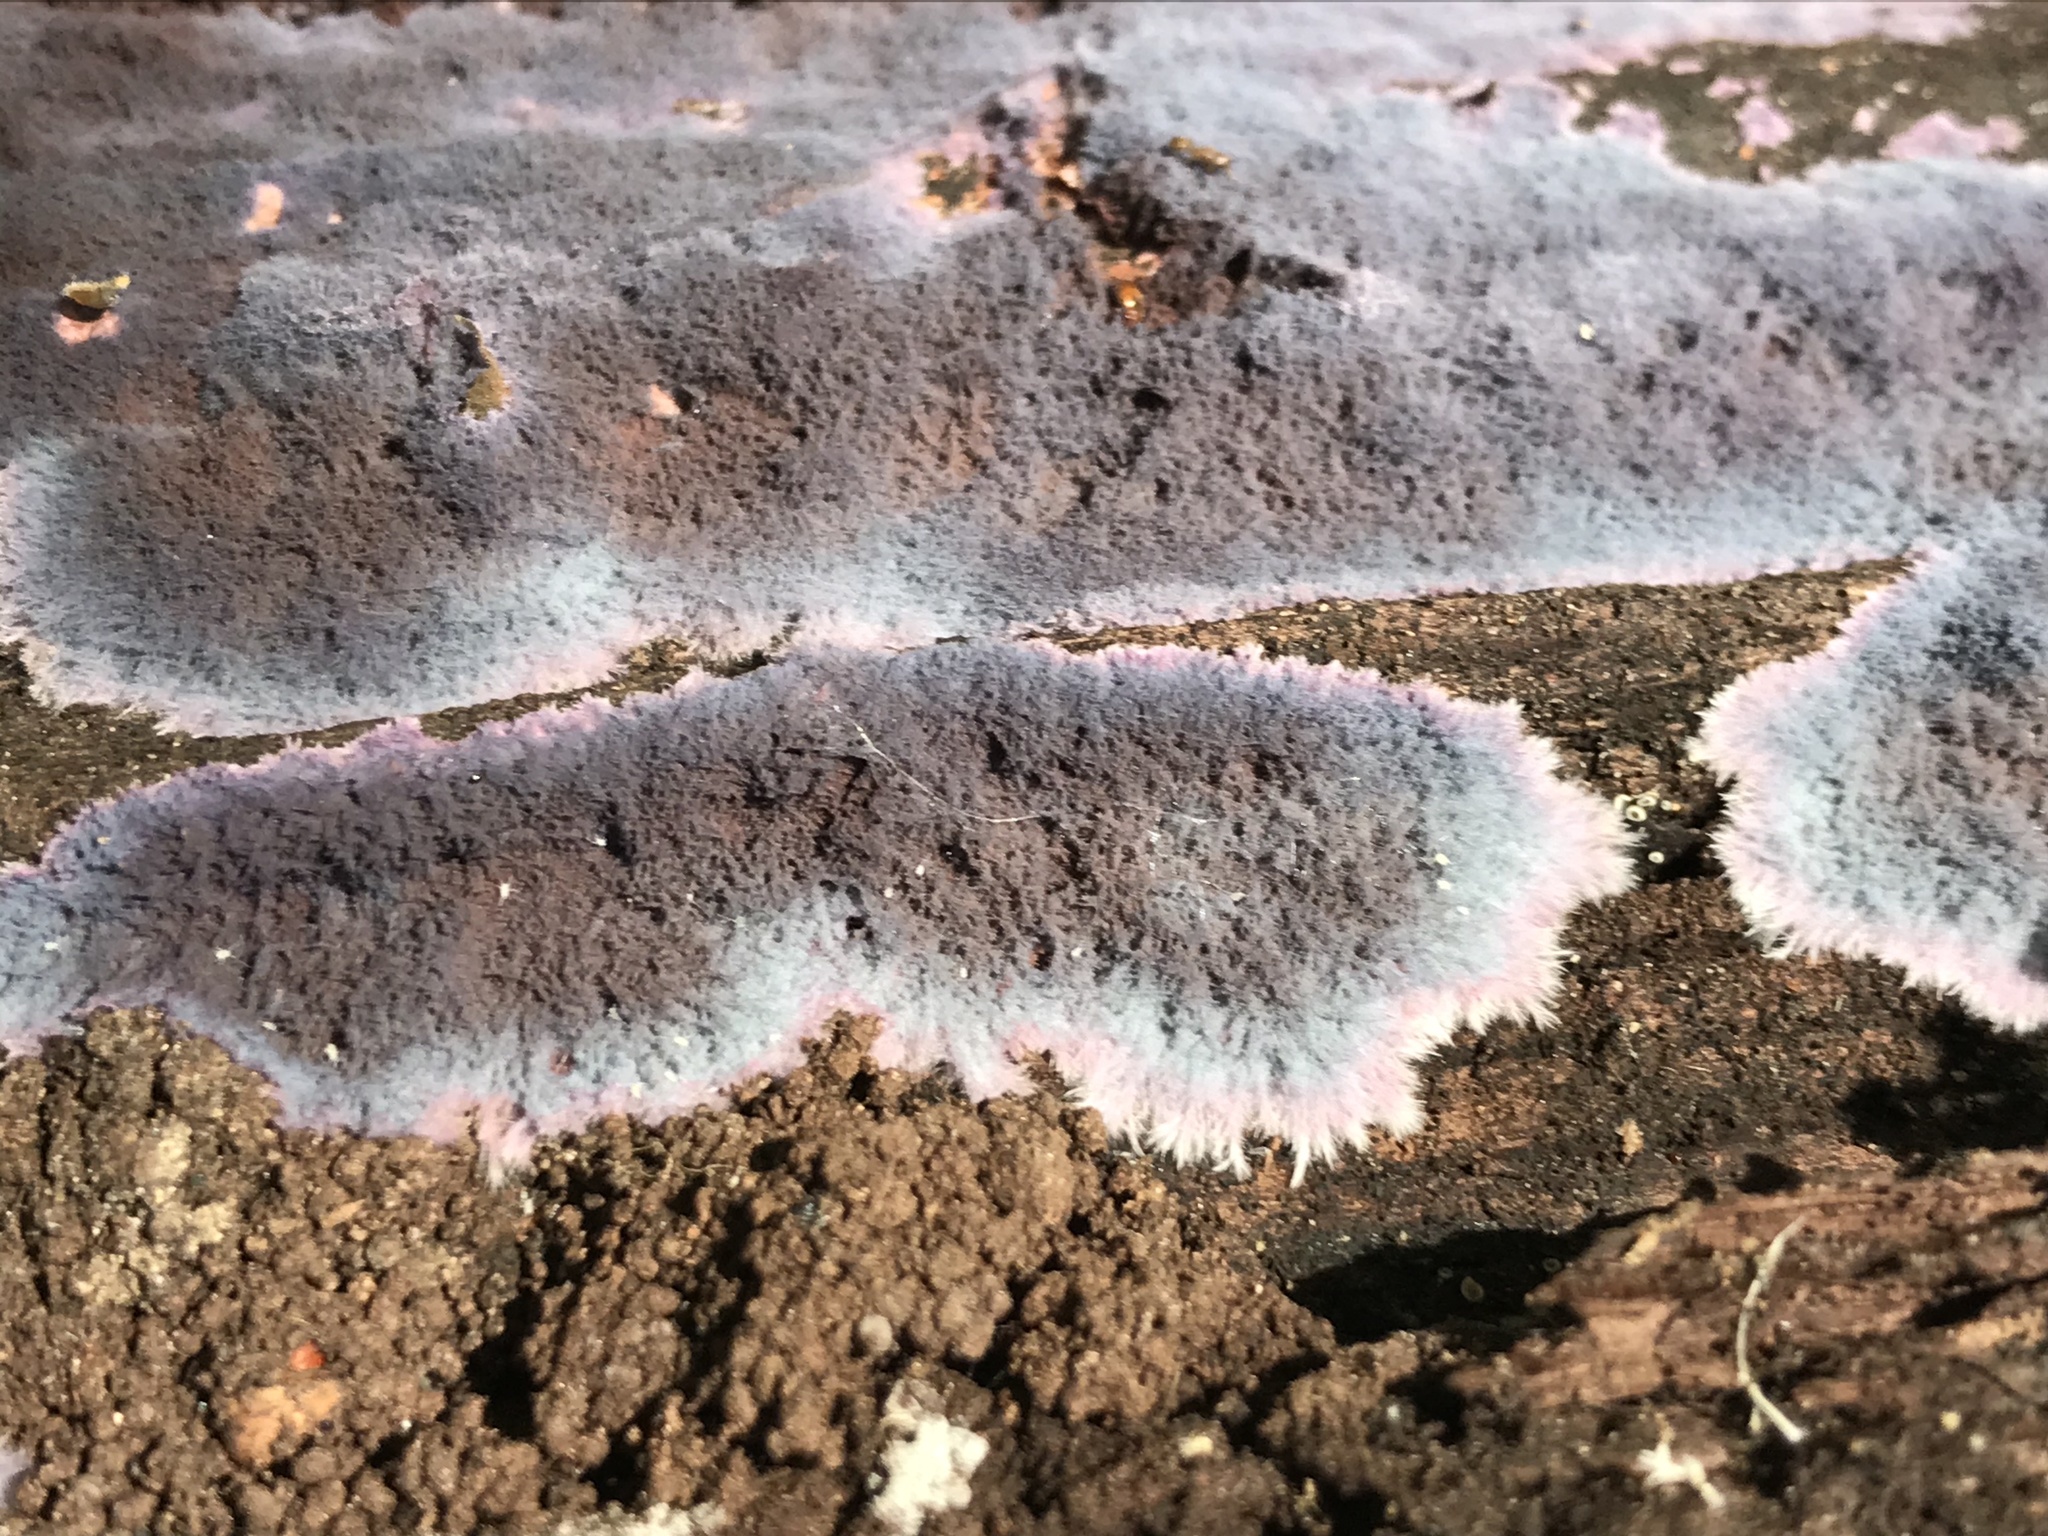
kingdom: Fungi
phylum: Basidiomycota
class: Agaricomycetes
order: Corticiales
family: Punctulariaceae
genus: Punctularia
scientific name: Punctularia atropurpurascens
